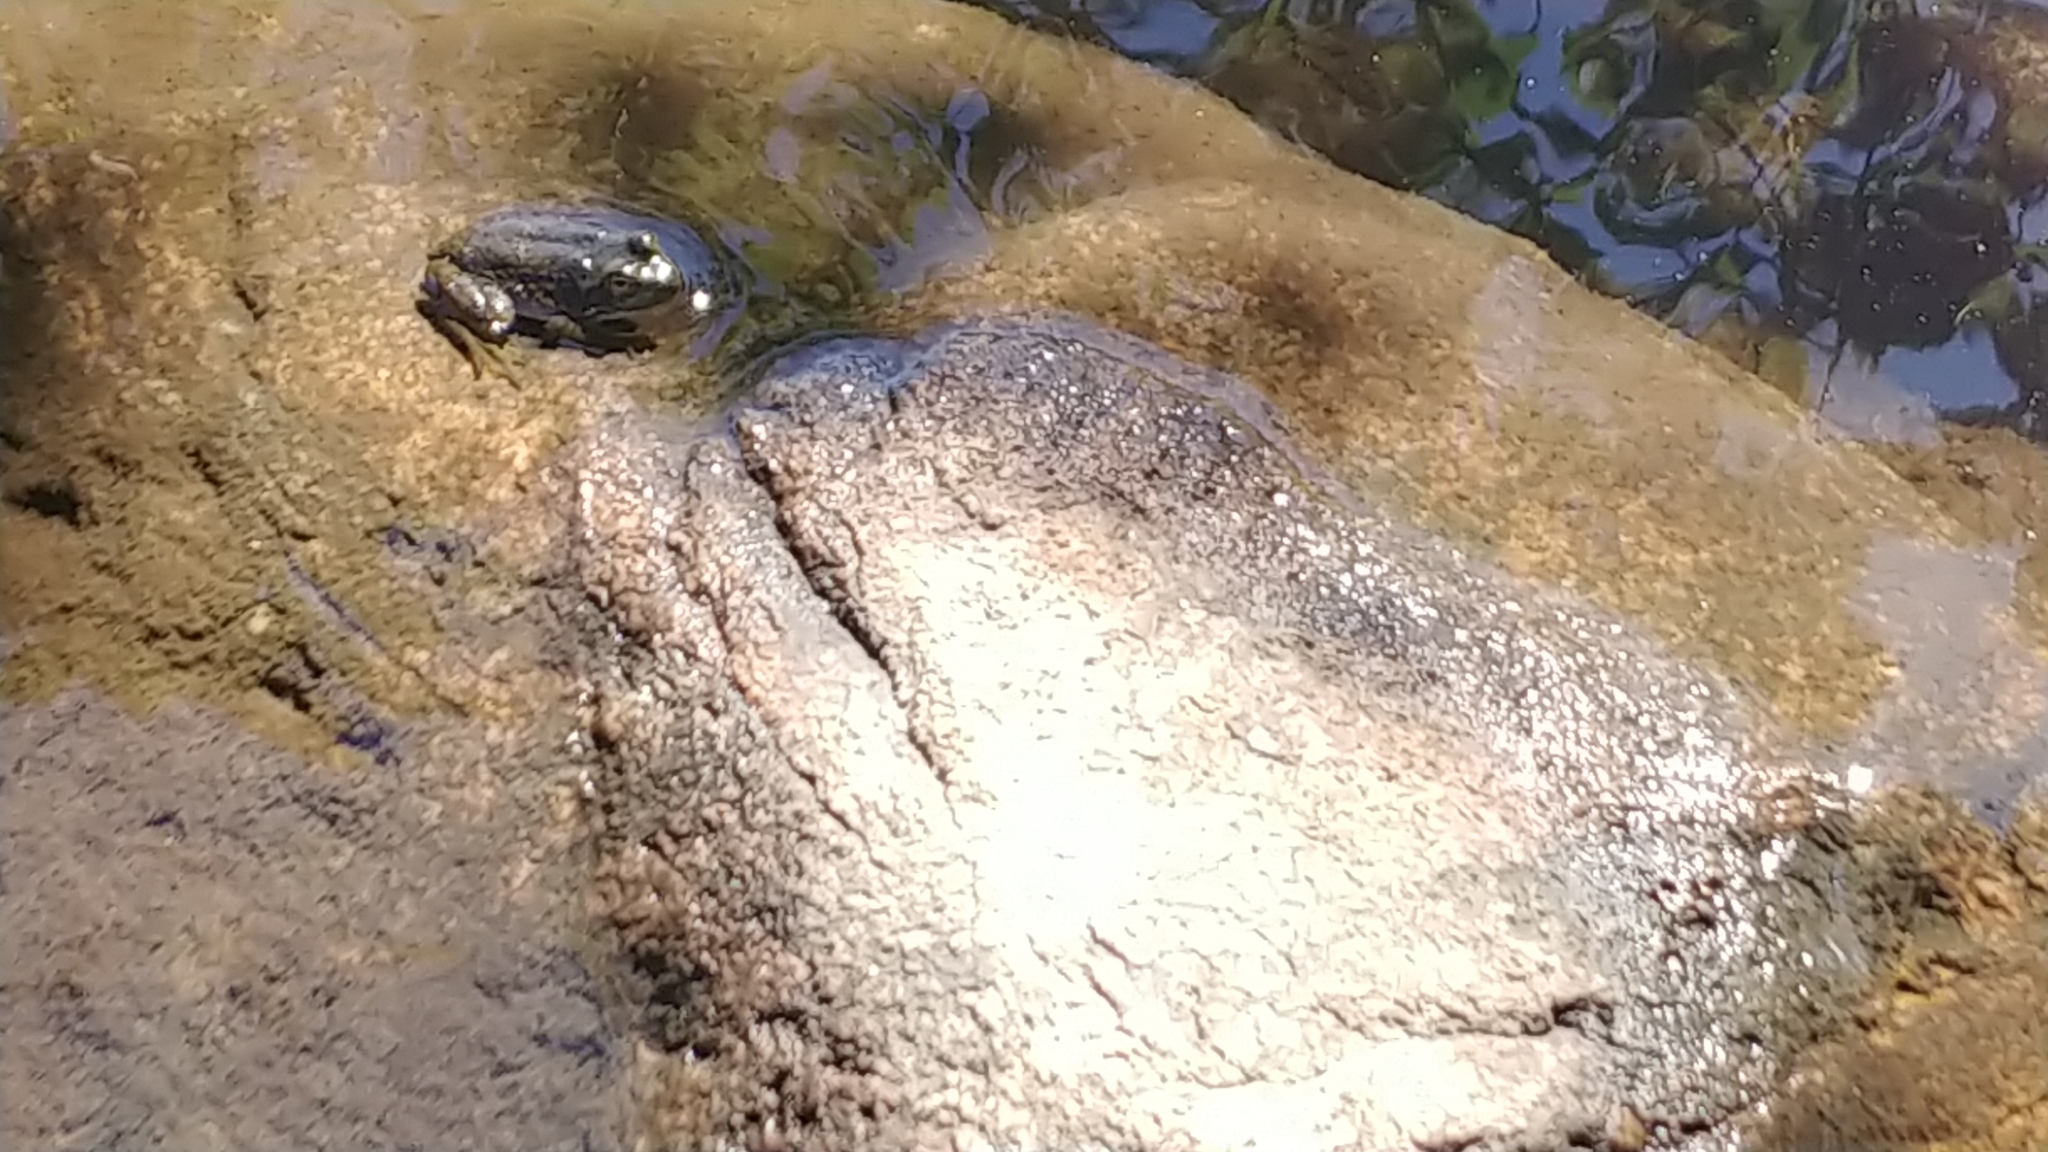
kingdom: Animalia
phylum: Chordata
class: Amphibia
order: Anura
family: Ranidae
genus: Lithobates
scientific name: Lithobates catesbeianus
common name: American bullfrog
